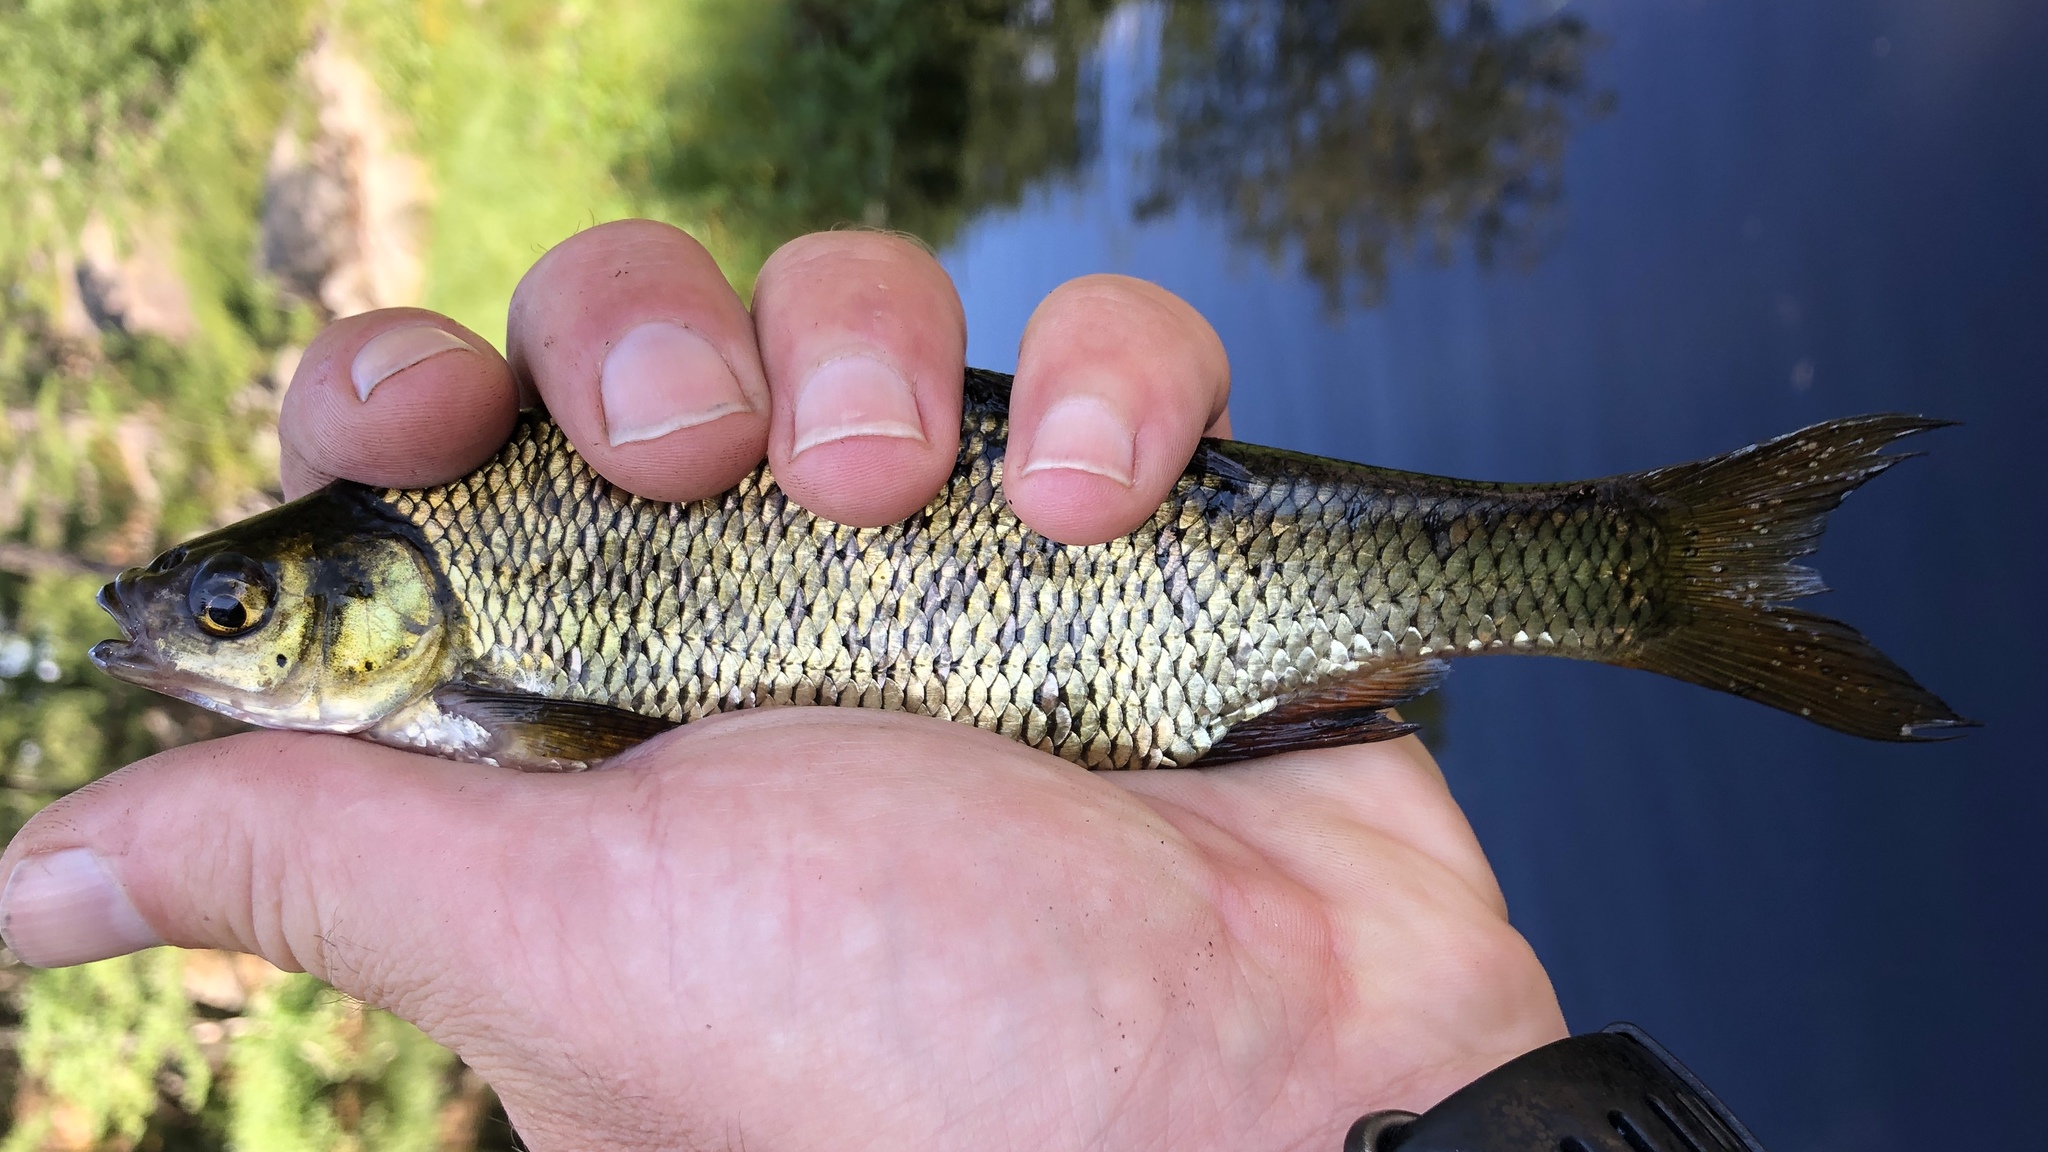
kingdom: Animalia
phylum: Chordata
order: Cypriniformes
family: Cyprinidae
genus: Notemigonus
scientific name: Notemigonus crysoleucas
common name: Golden shiner
